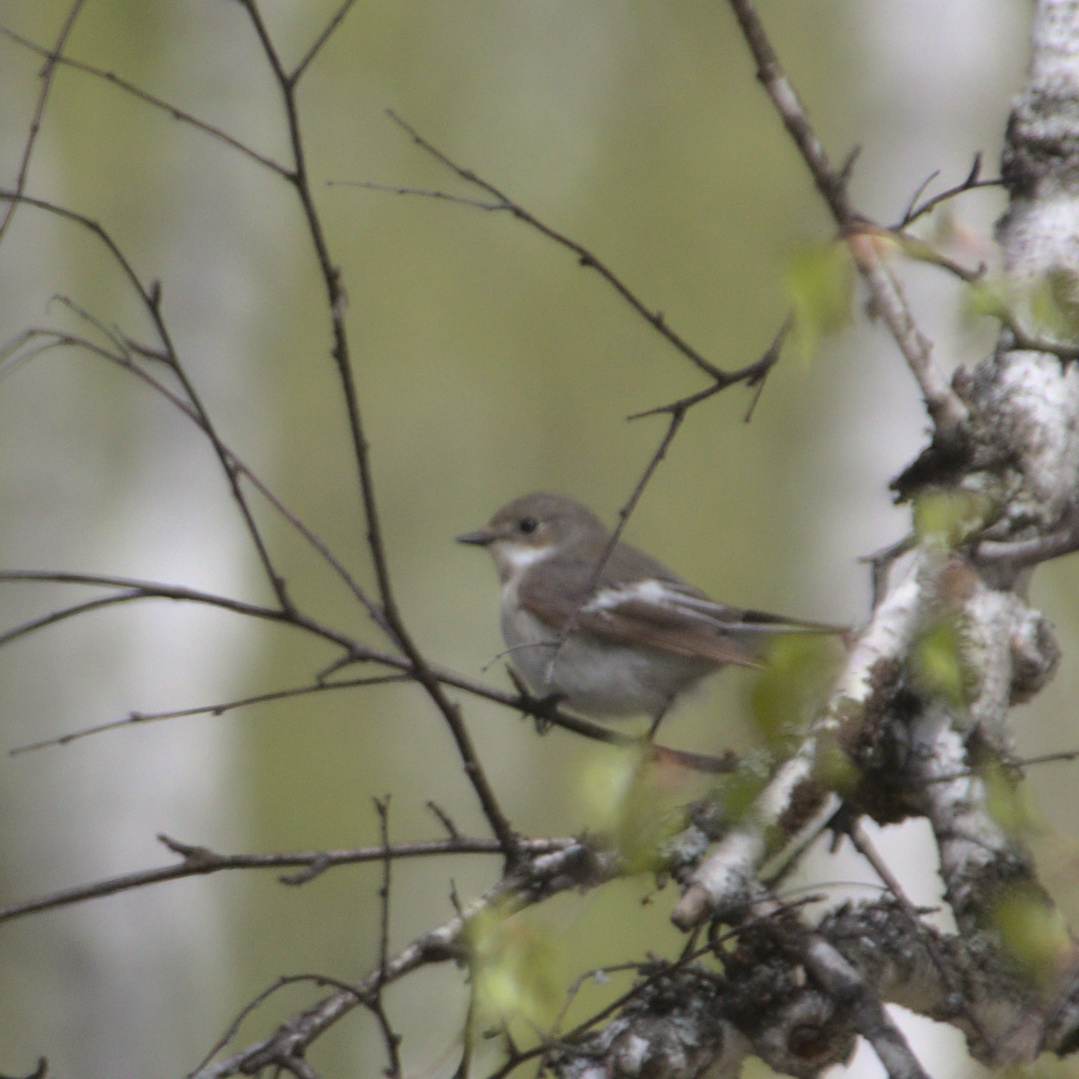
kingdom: Animalia
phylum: Chordata
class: Aves
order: Passeriformes
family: Muscicapidae
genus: Ficedula
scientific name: Ficedula hypoleuca
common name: European pied flycatcher
